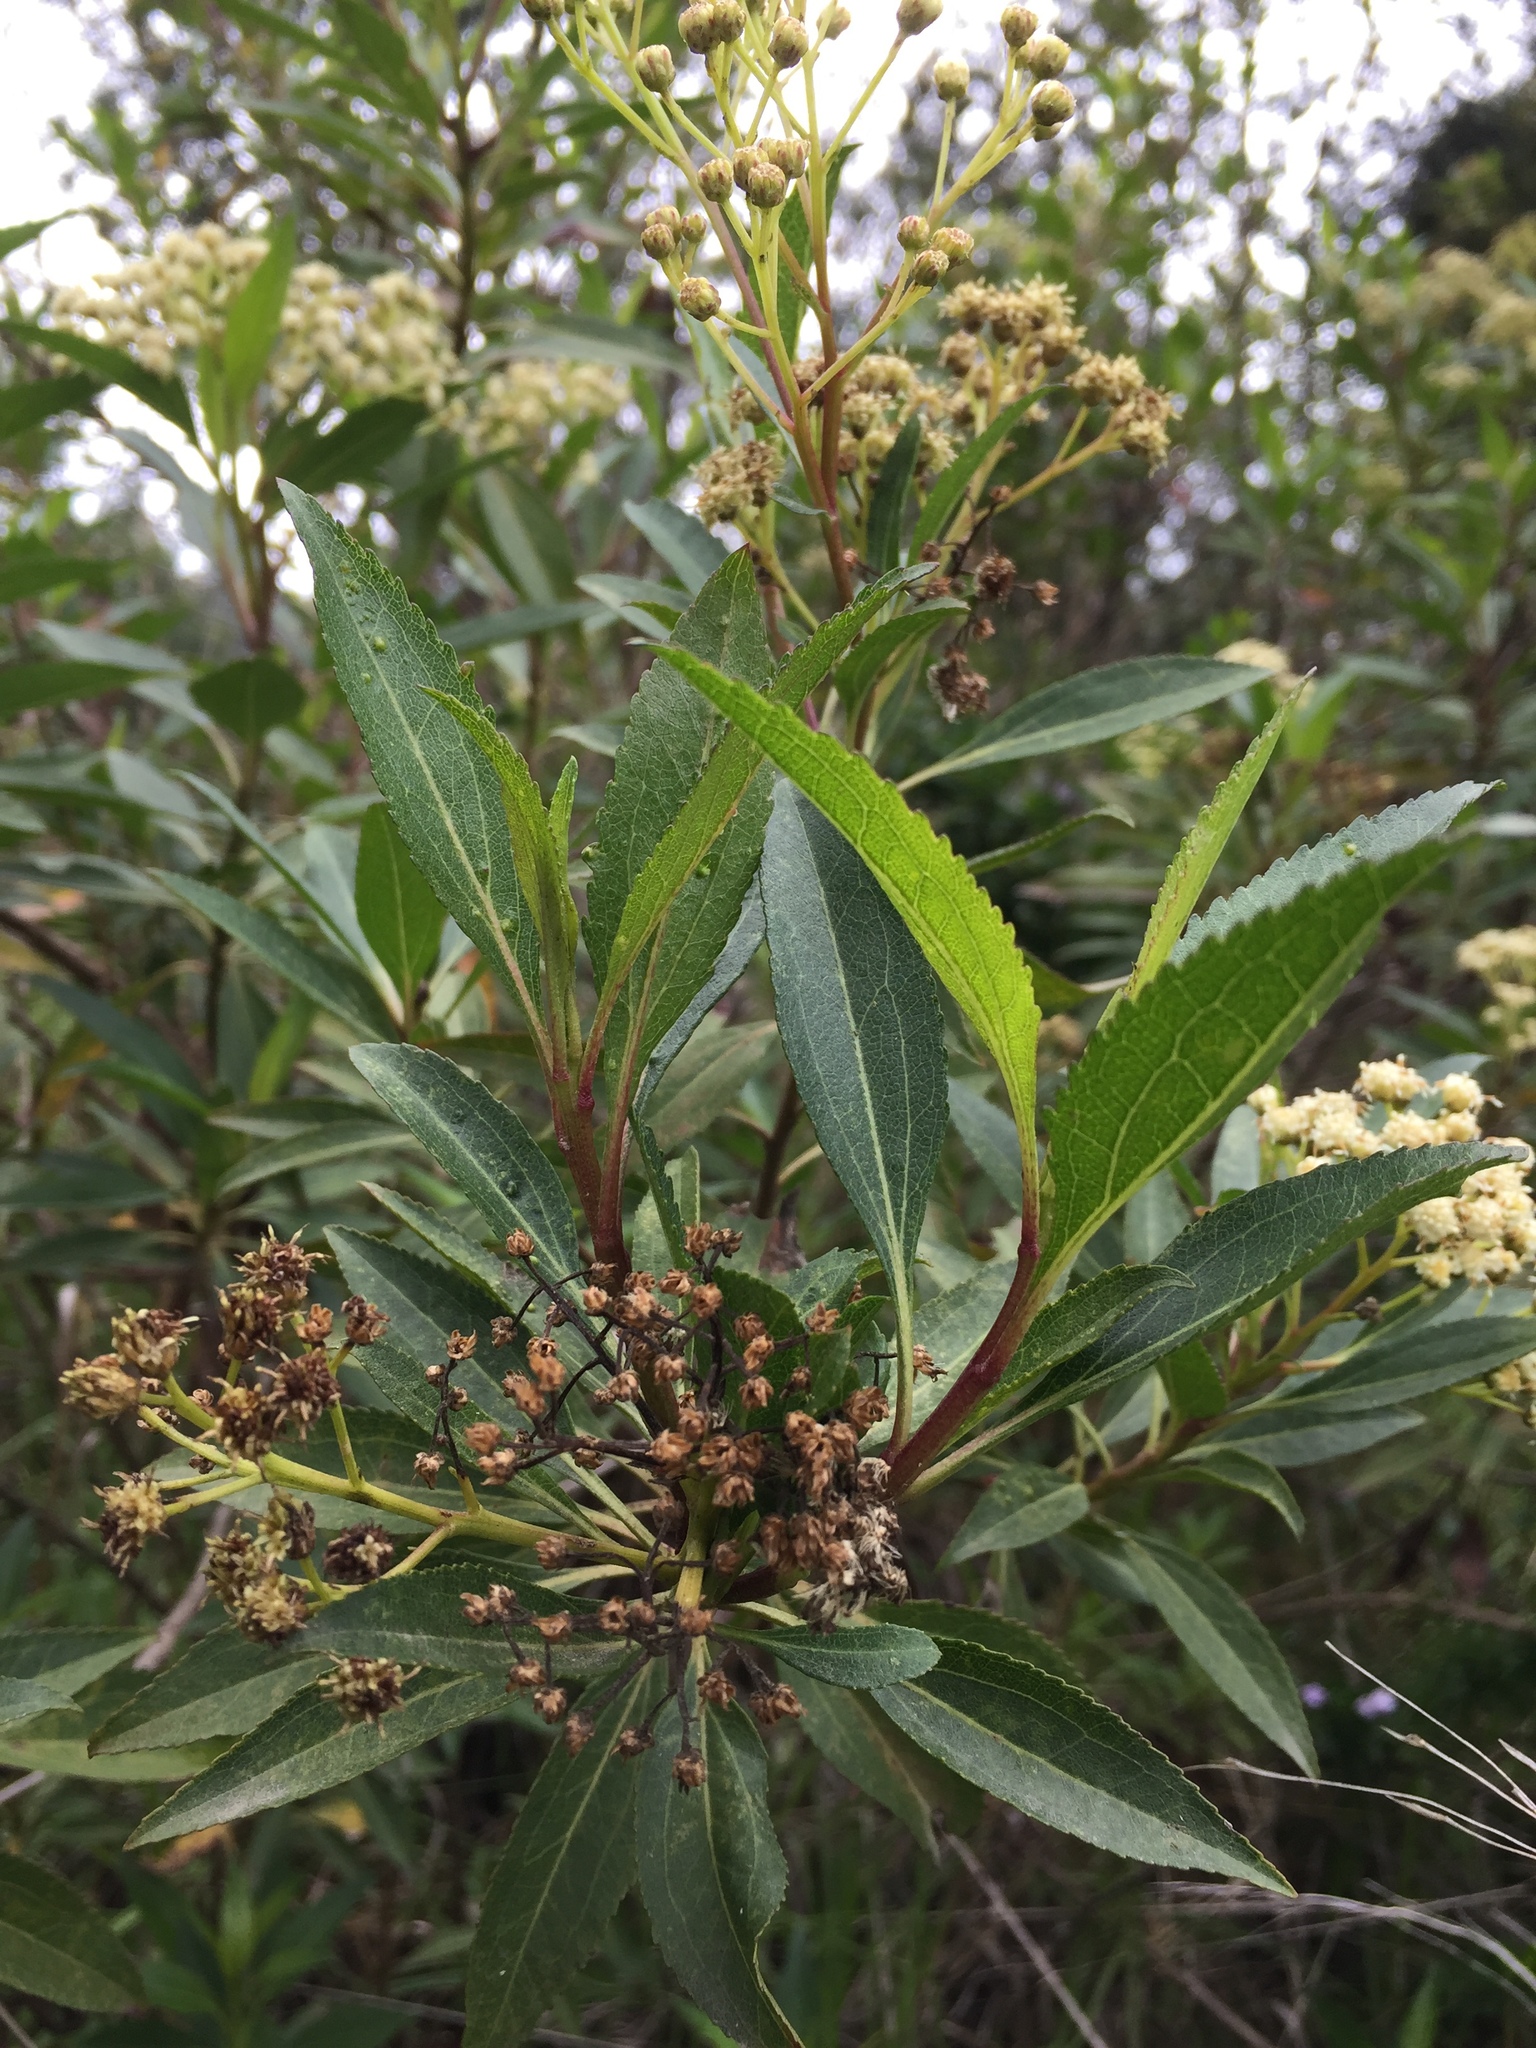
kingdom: Plantae
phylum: Tracheophyta
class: Magnoliopsida
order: Asterales
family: Asteraceae
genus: Baccharis
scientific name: Baccharis latifolia
